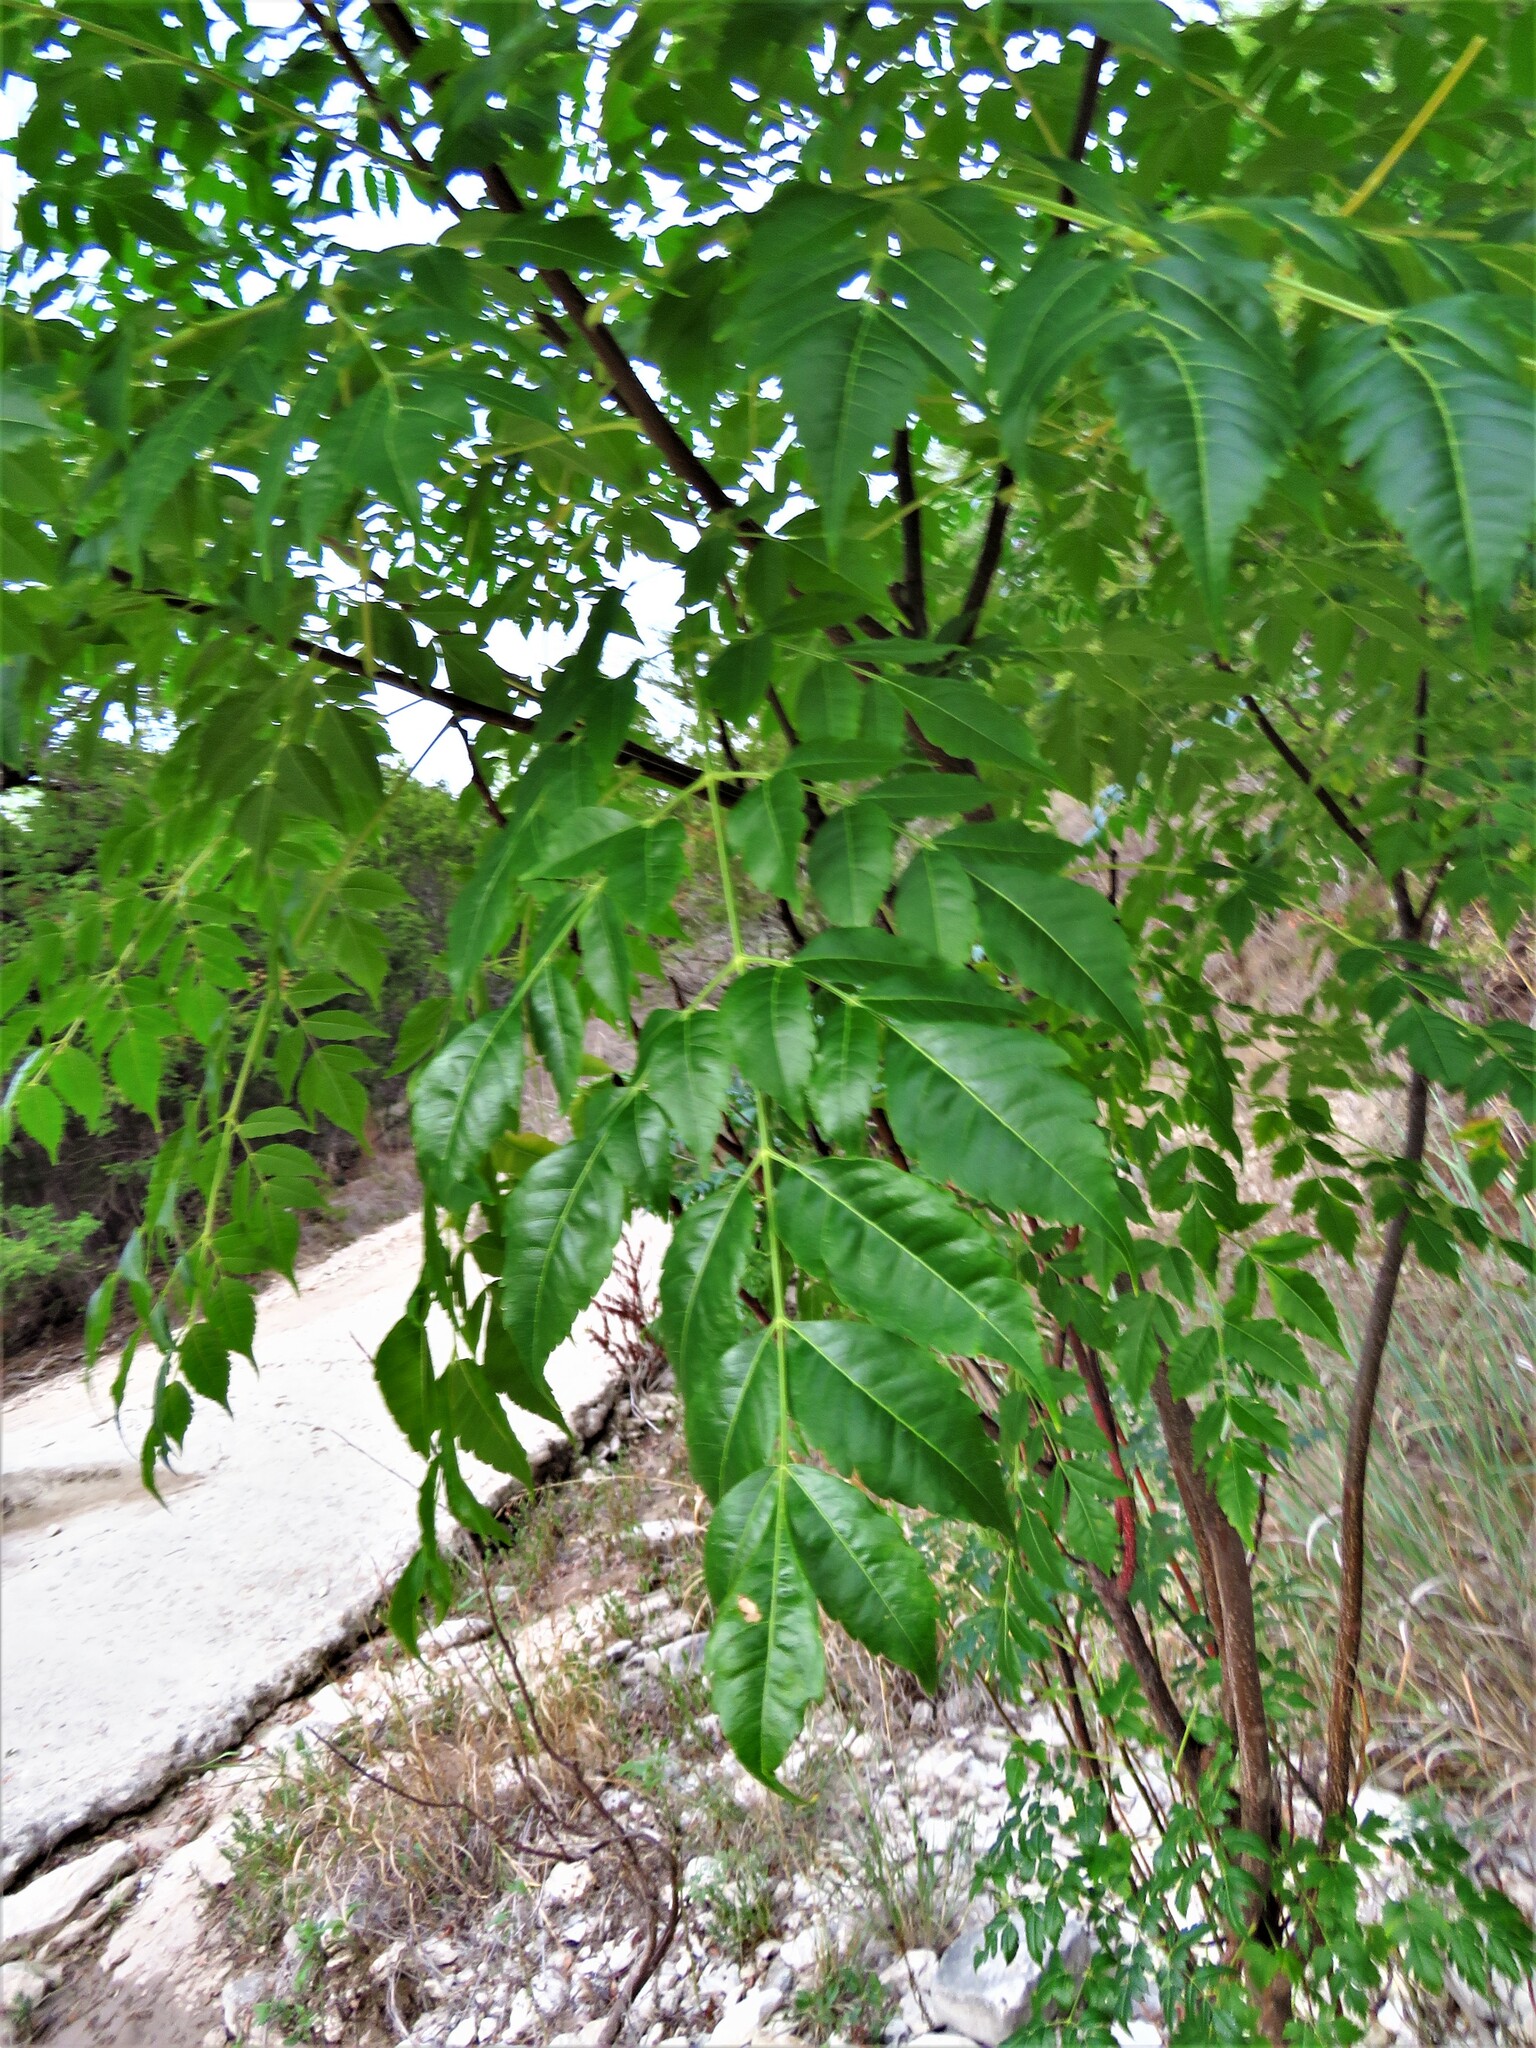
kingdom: Plantae
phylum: Tracheophyta
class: Magnoliopsida
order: Sapindales
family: Meliaceae
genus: Melia
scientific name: Melia azedarach
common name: Chinaberrytree
